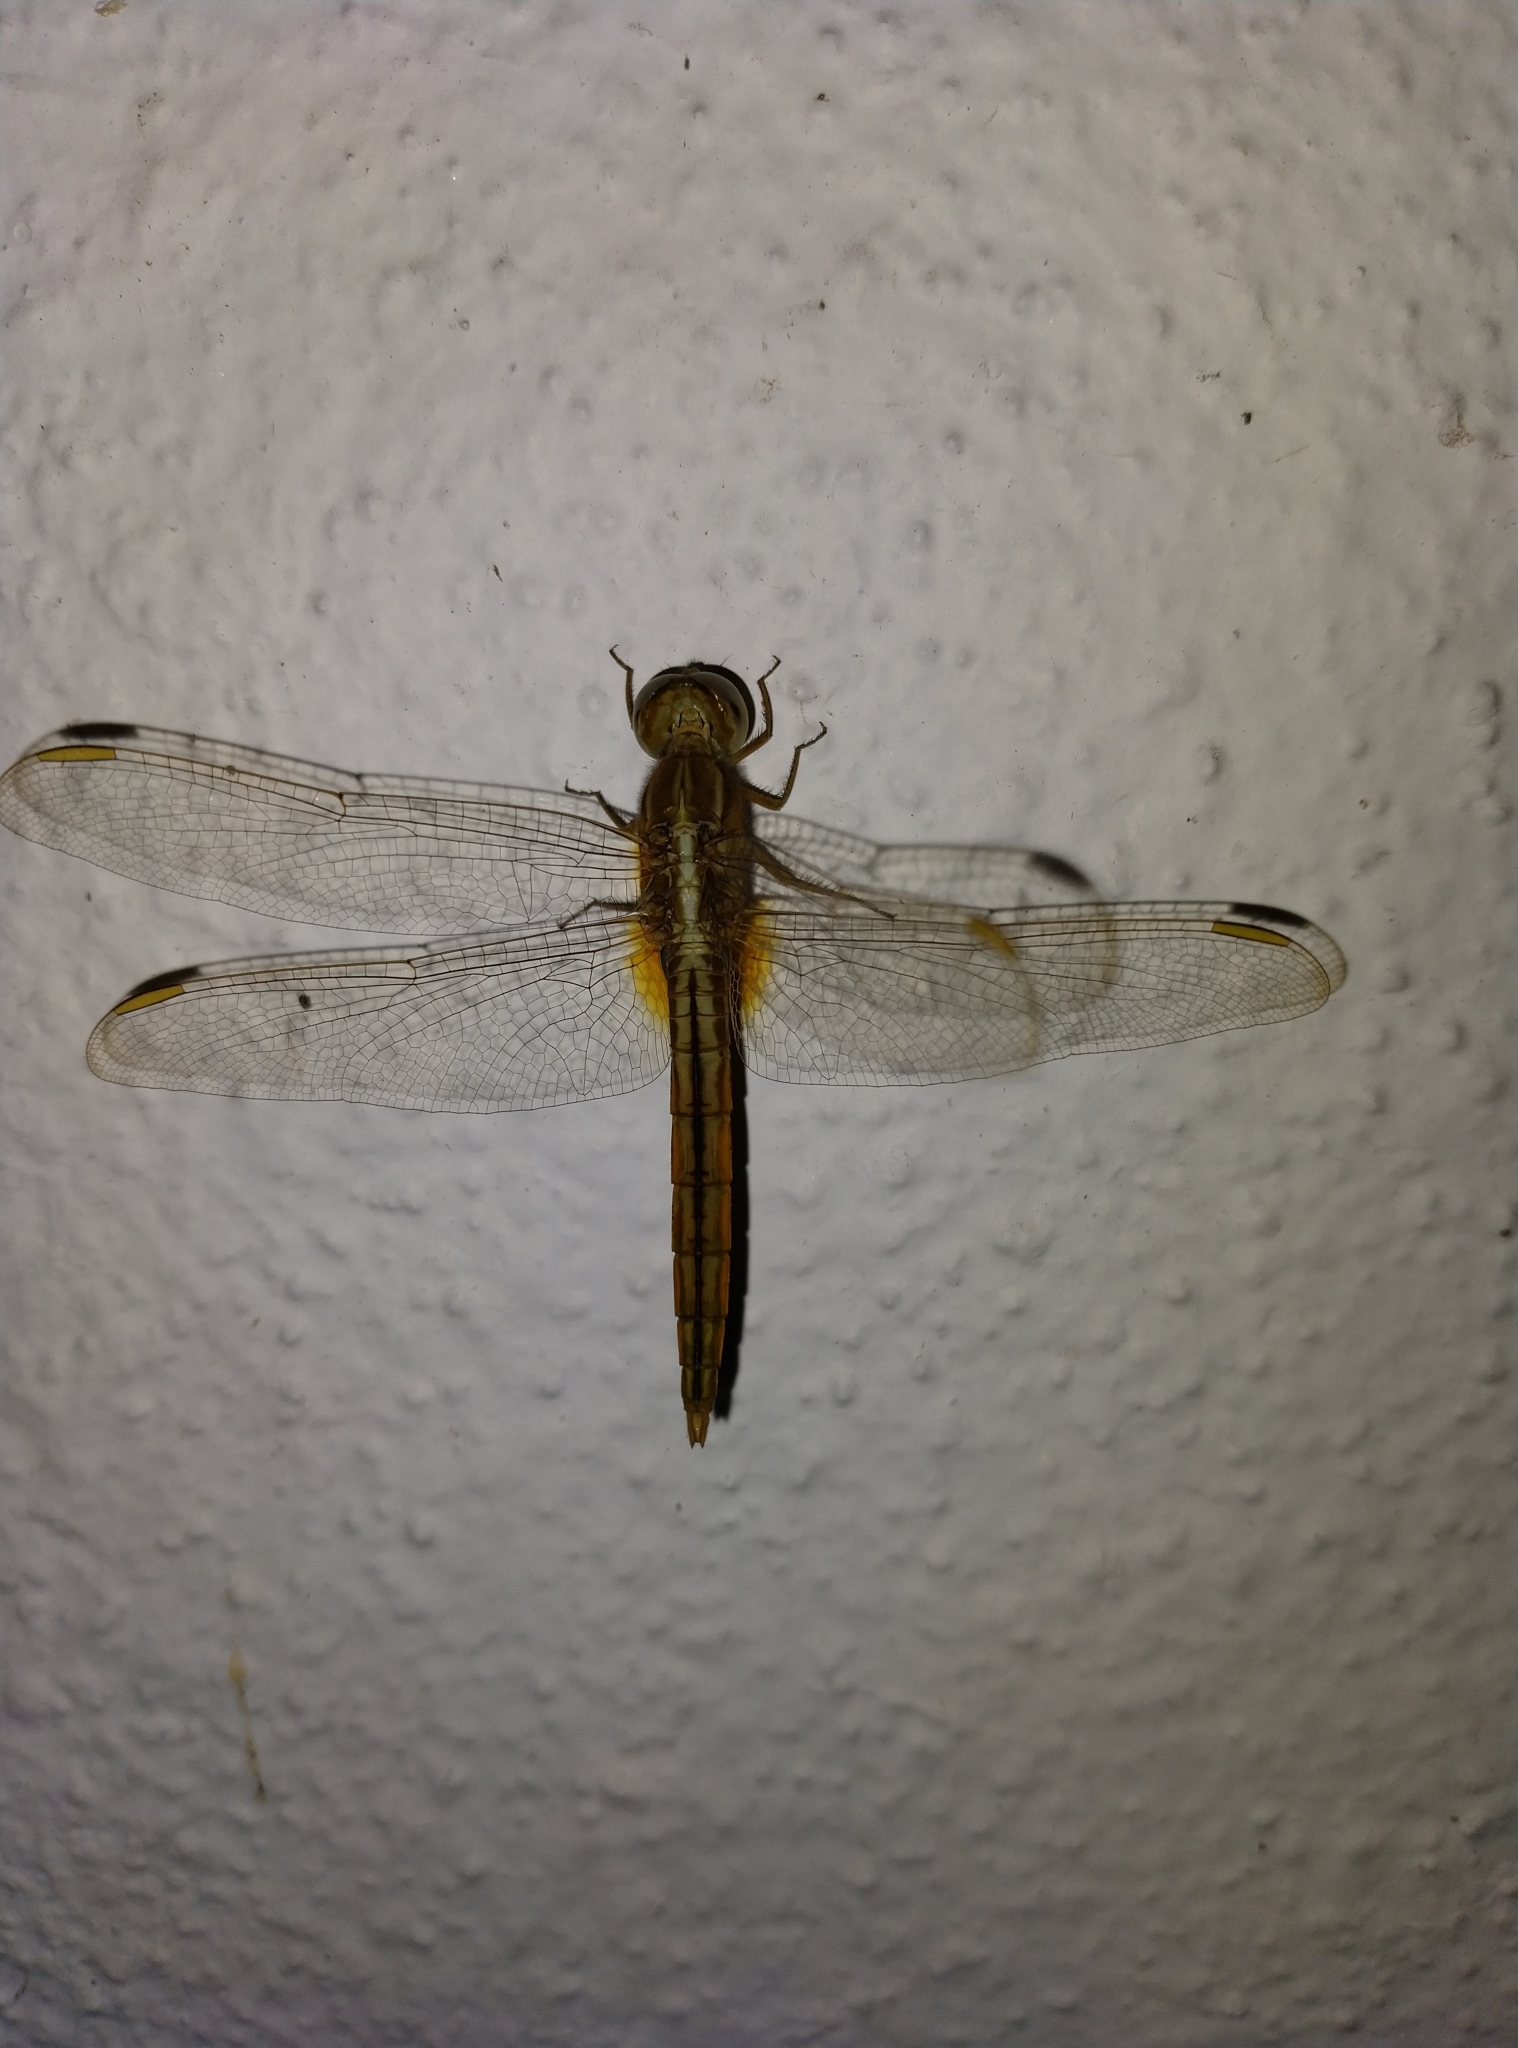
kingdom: Animalia
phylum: Arthropoda
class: Insecta
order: Odonata
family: Libellulidae
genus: Crocothemis
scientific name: Crocothemis servilia
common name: Scarlet skimmer
